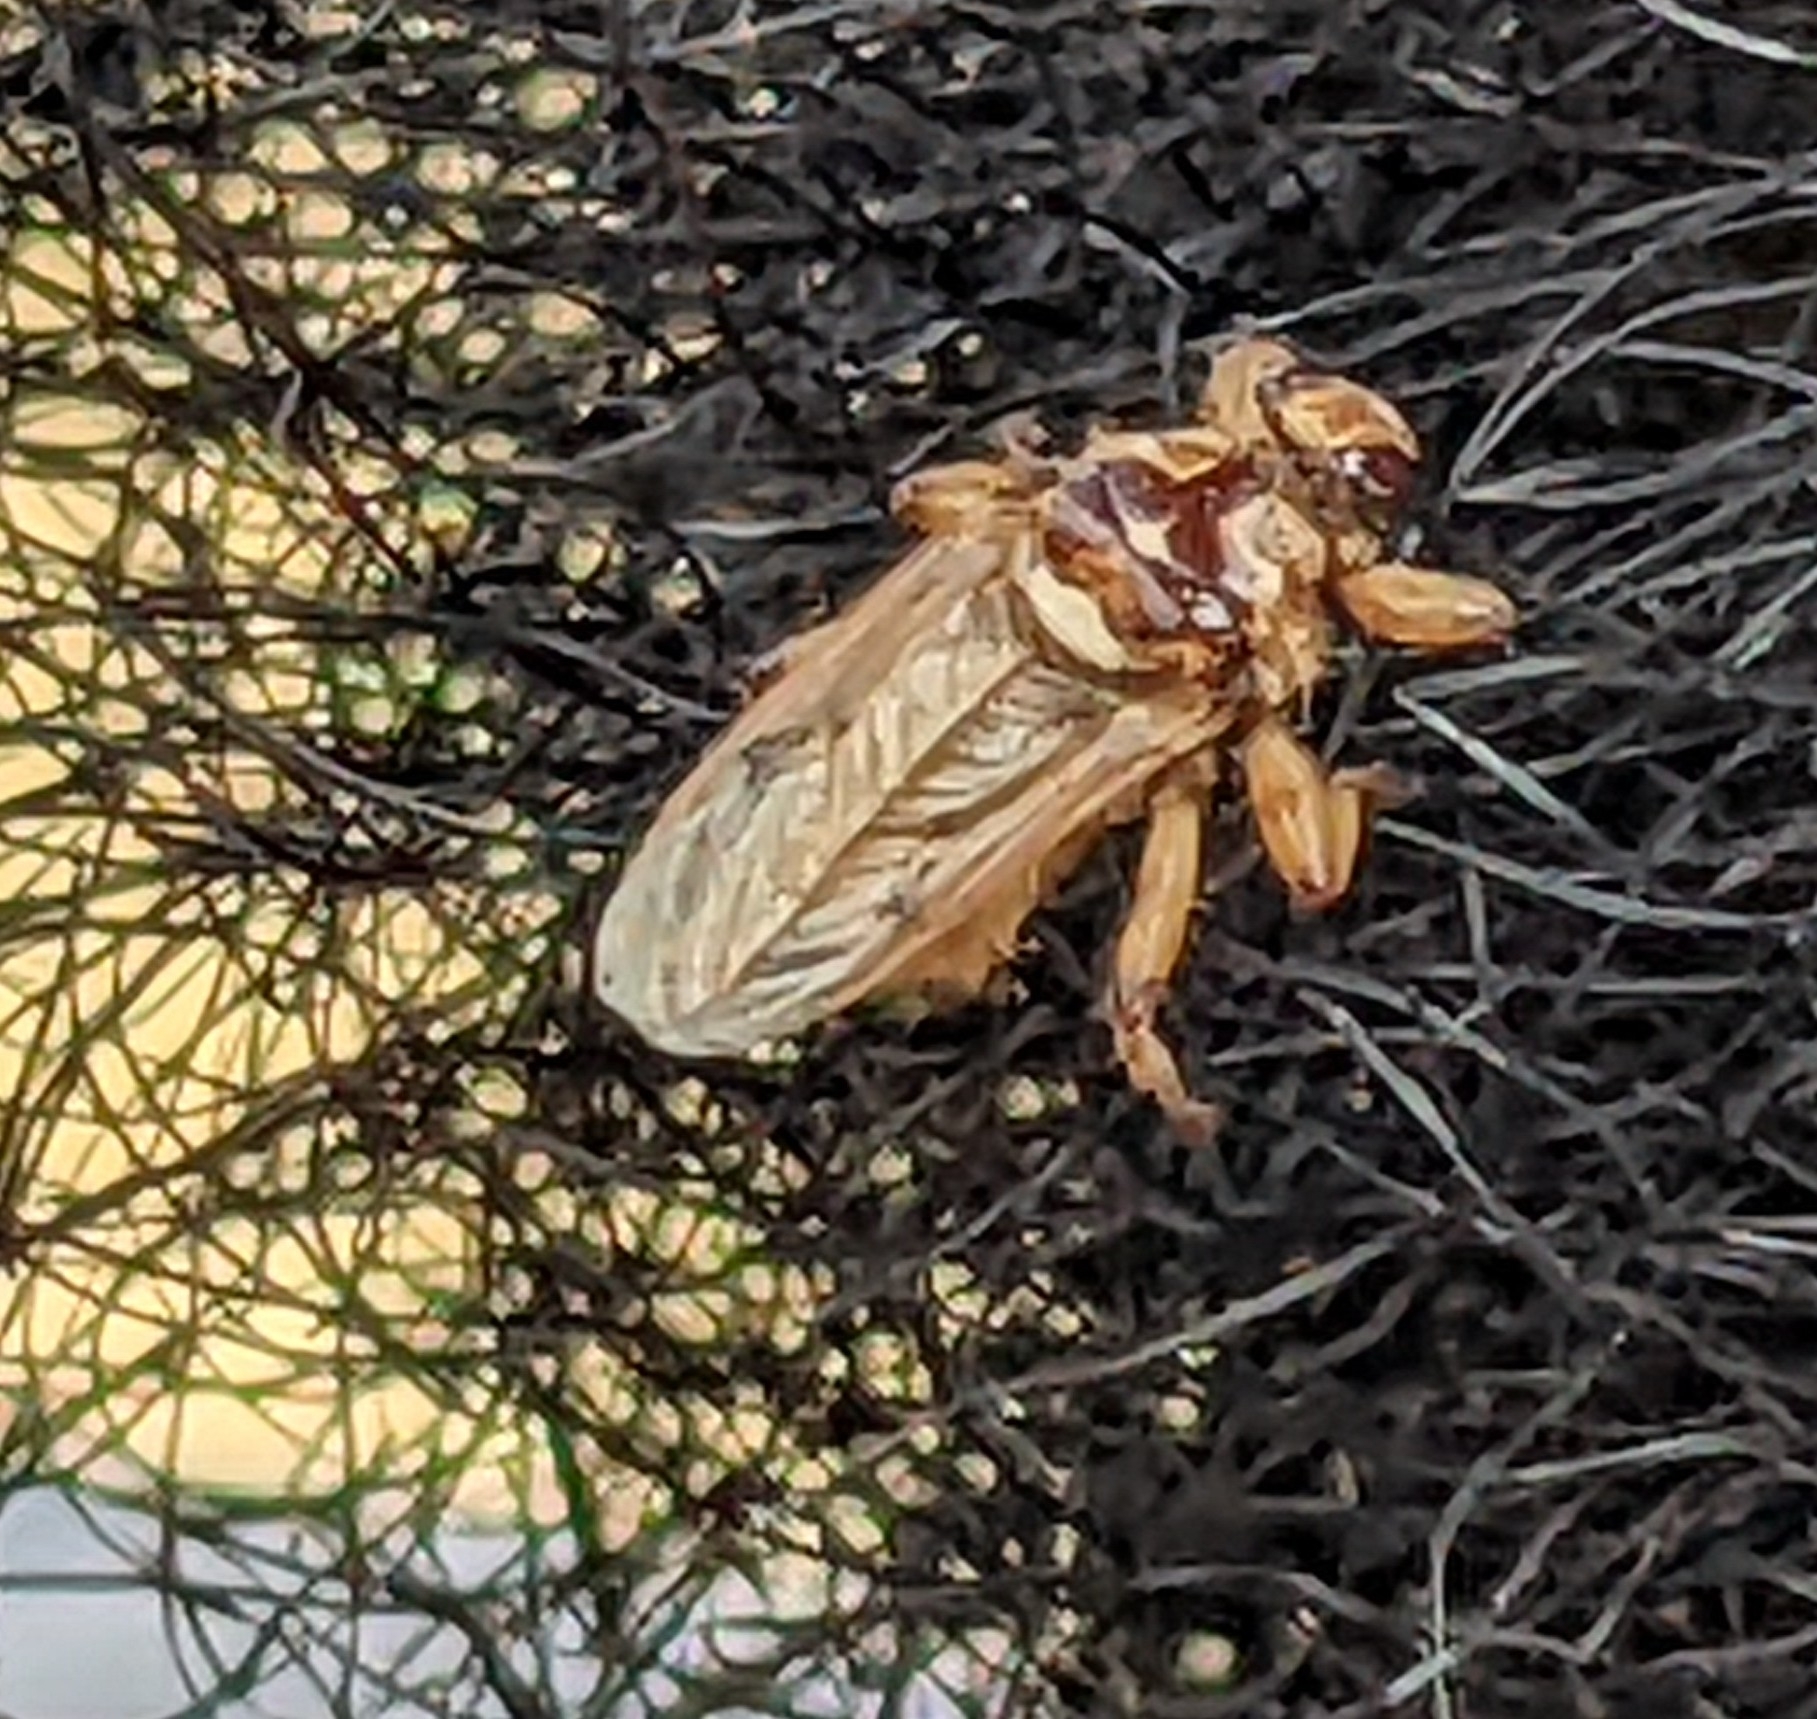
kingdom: Animalia
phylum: Arthropoda
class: Insecta
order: Diptera
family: Hippoboscidae
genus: Hippobosca
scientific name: Hippobosca longipennis
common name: Louse fly
